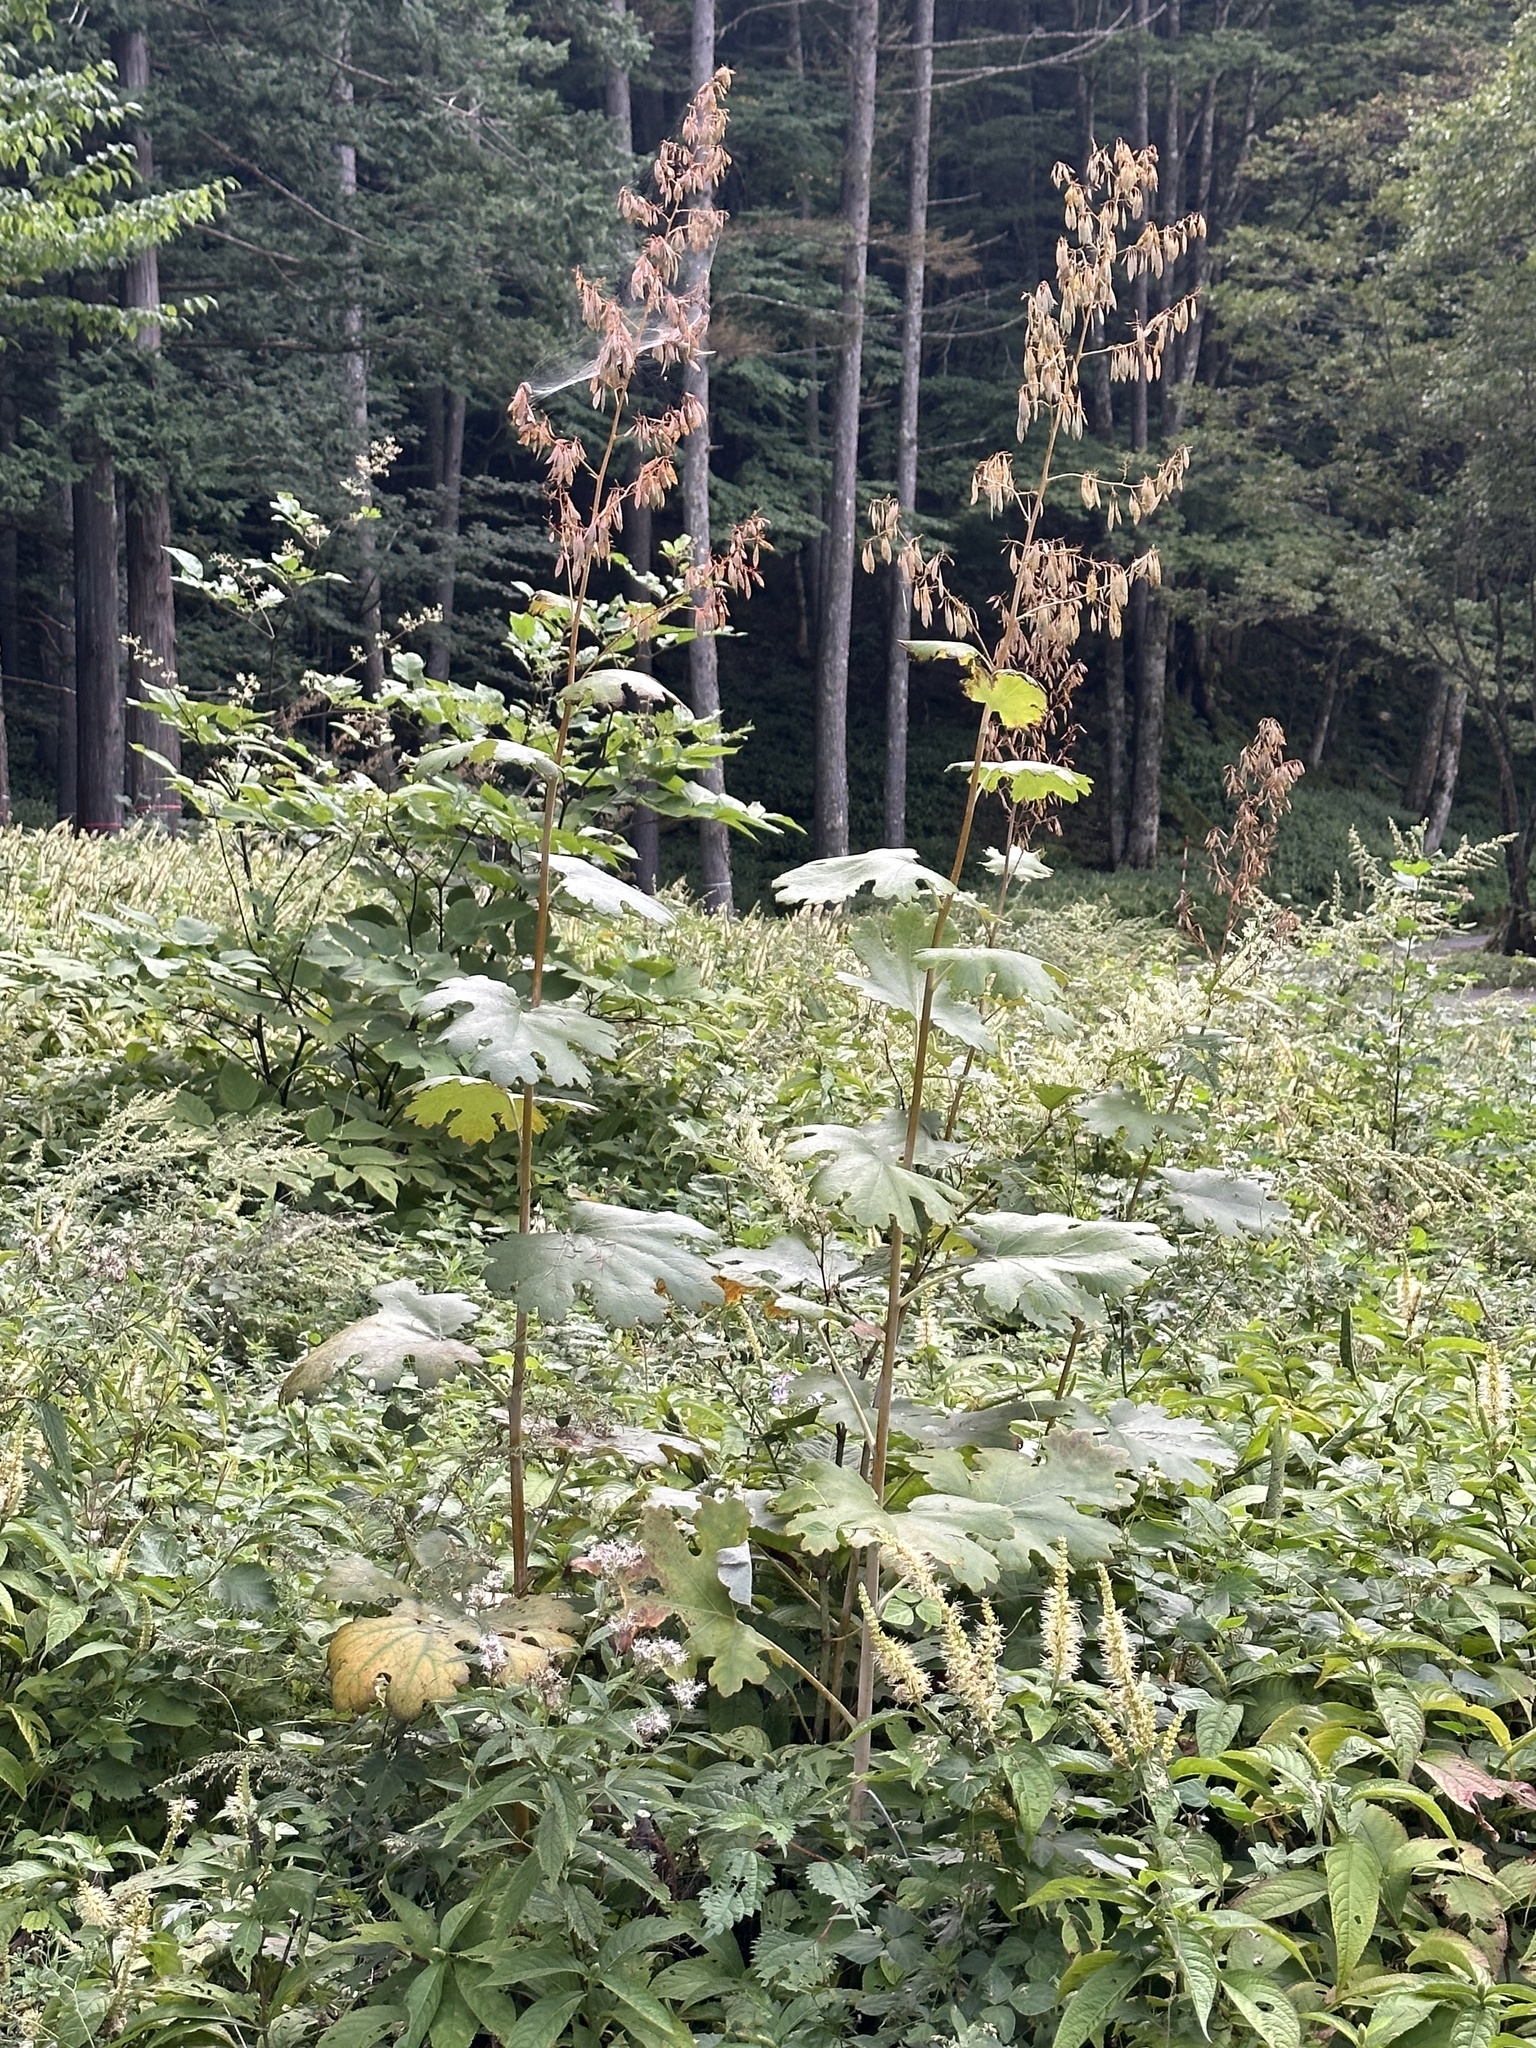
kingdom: Plantae
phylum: Tracheophyta
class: Magnoliopsida
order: Ranunculales
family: Papaveraceae
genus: Macleaya
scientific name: Macleaya cordata
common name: Plume poppy
